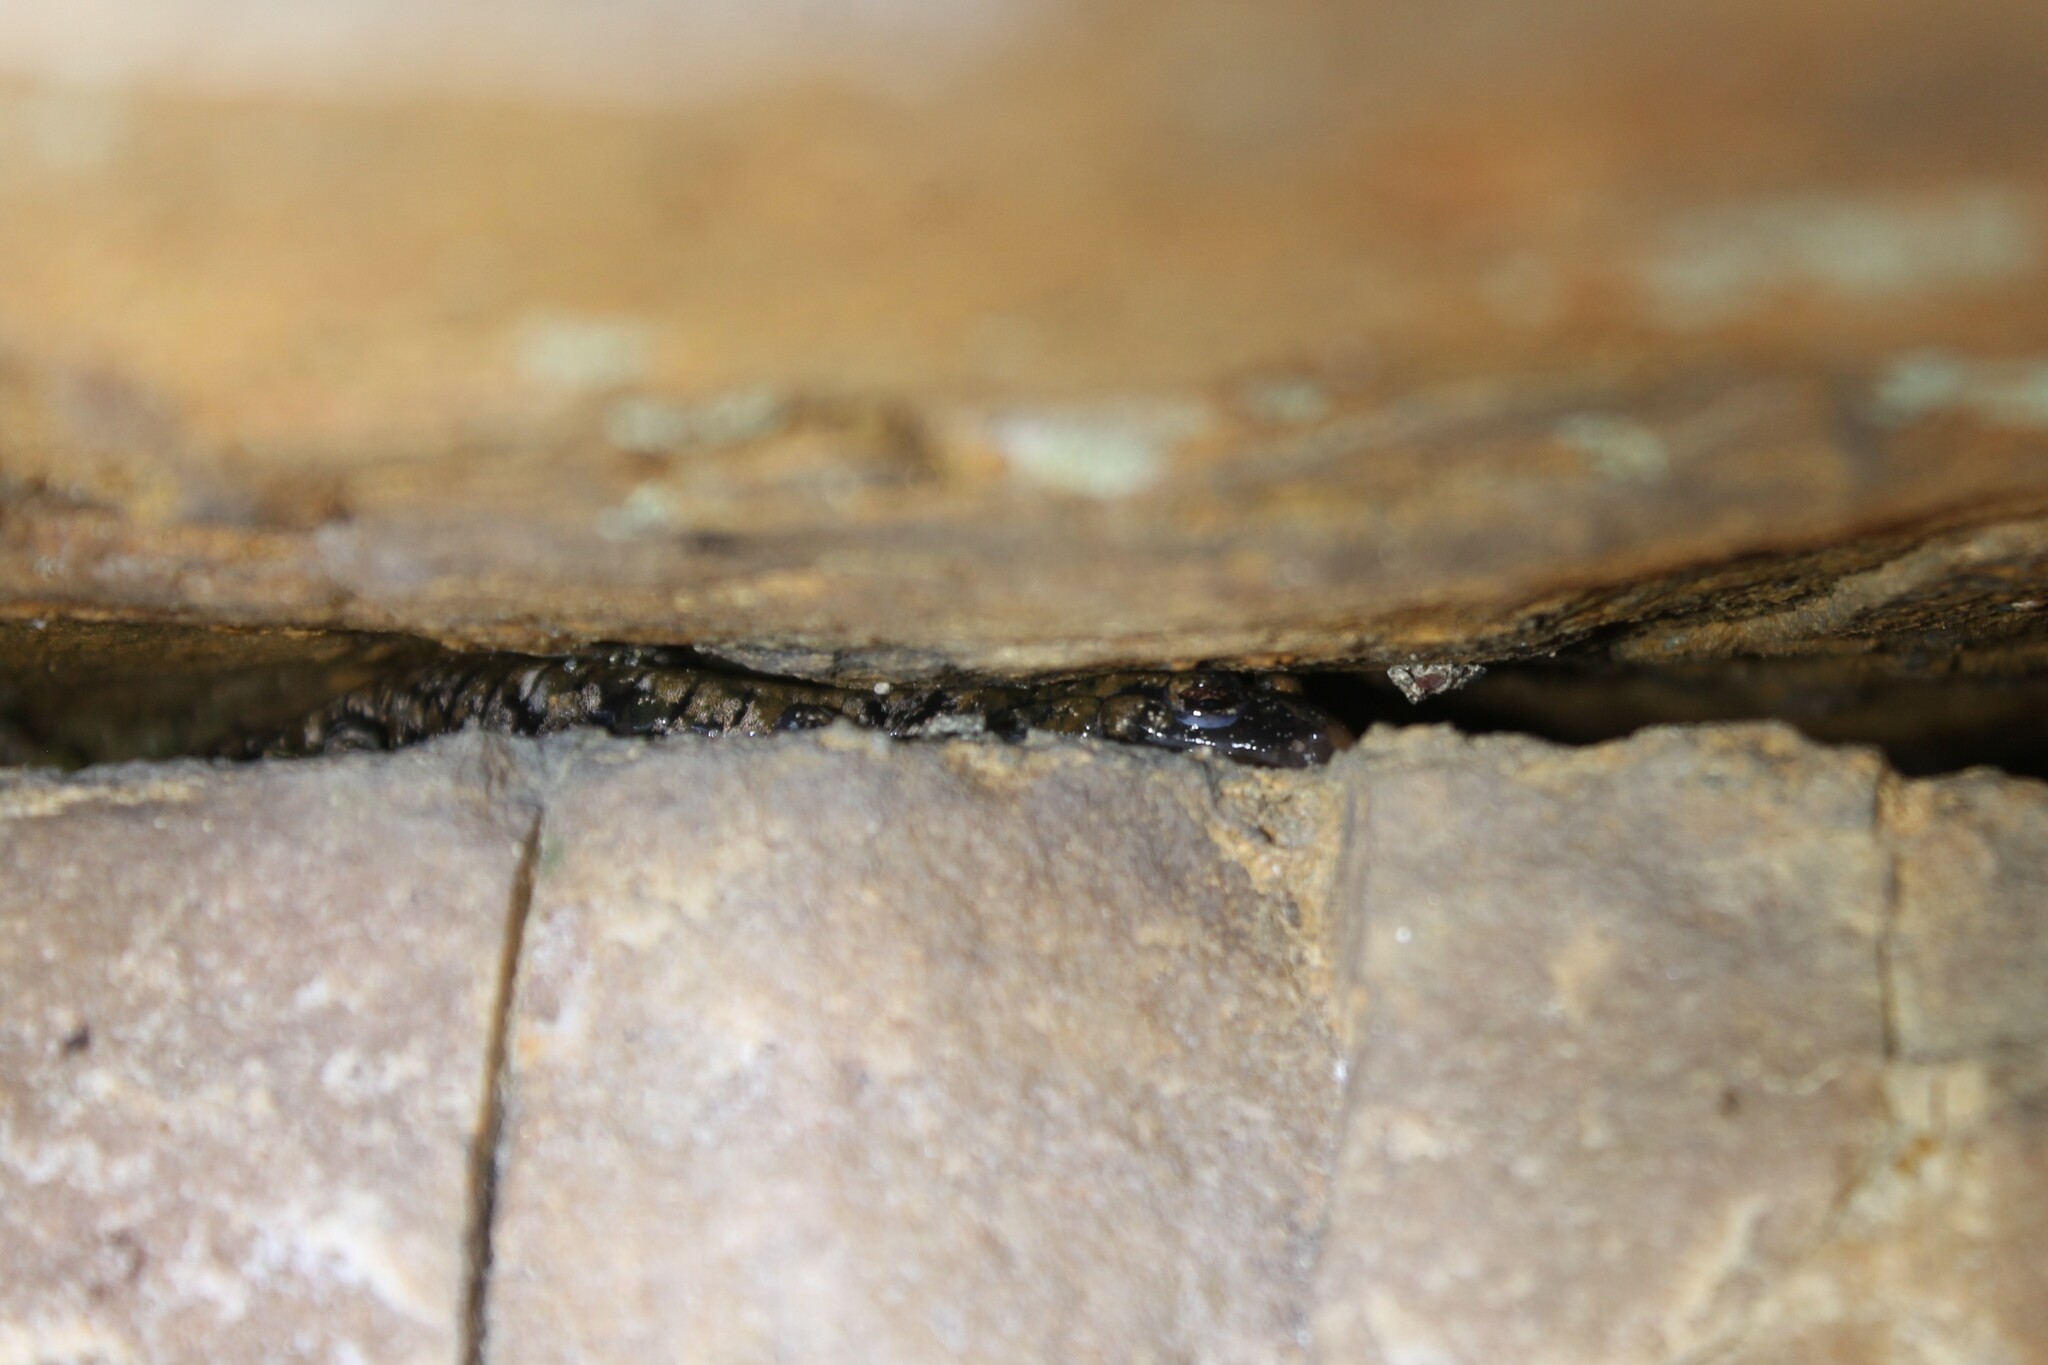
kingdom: Animalia
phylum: Chordata
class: Amphibia
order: Caudata
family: Plethodontidae
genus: Plethodon
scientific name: Plethodon petraeus
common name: Pigeon mountain salamander
